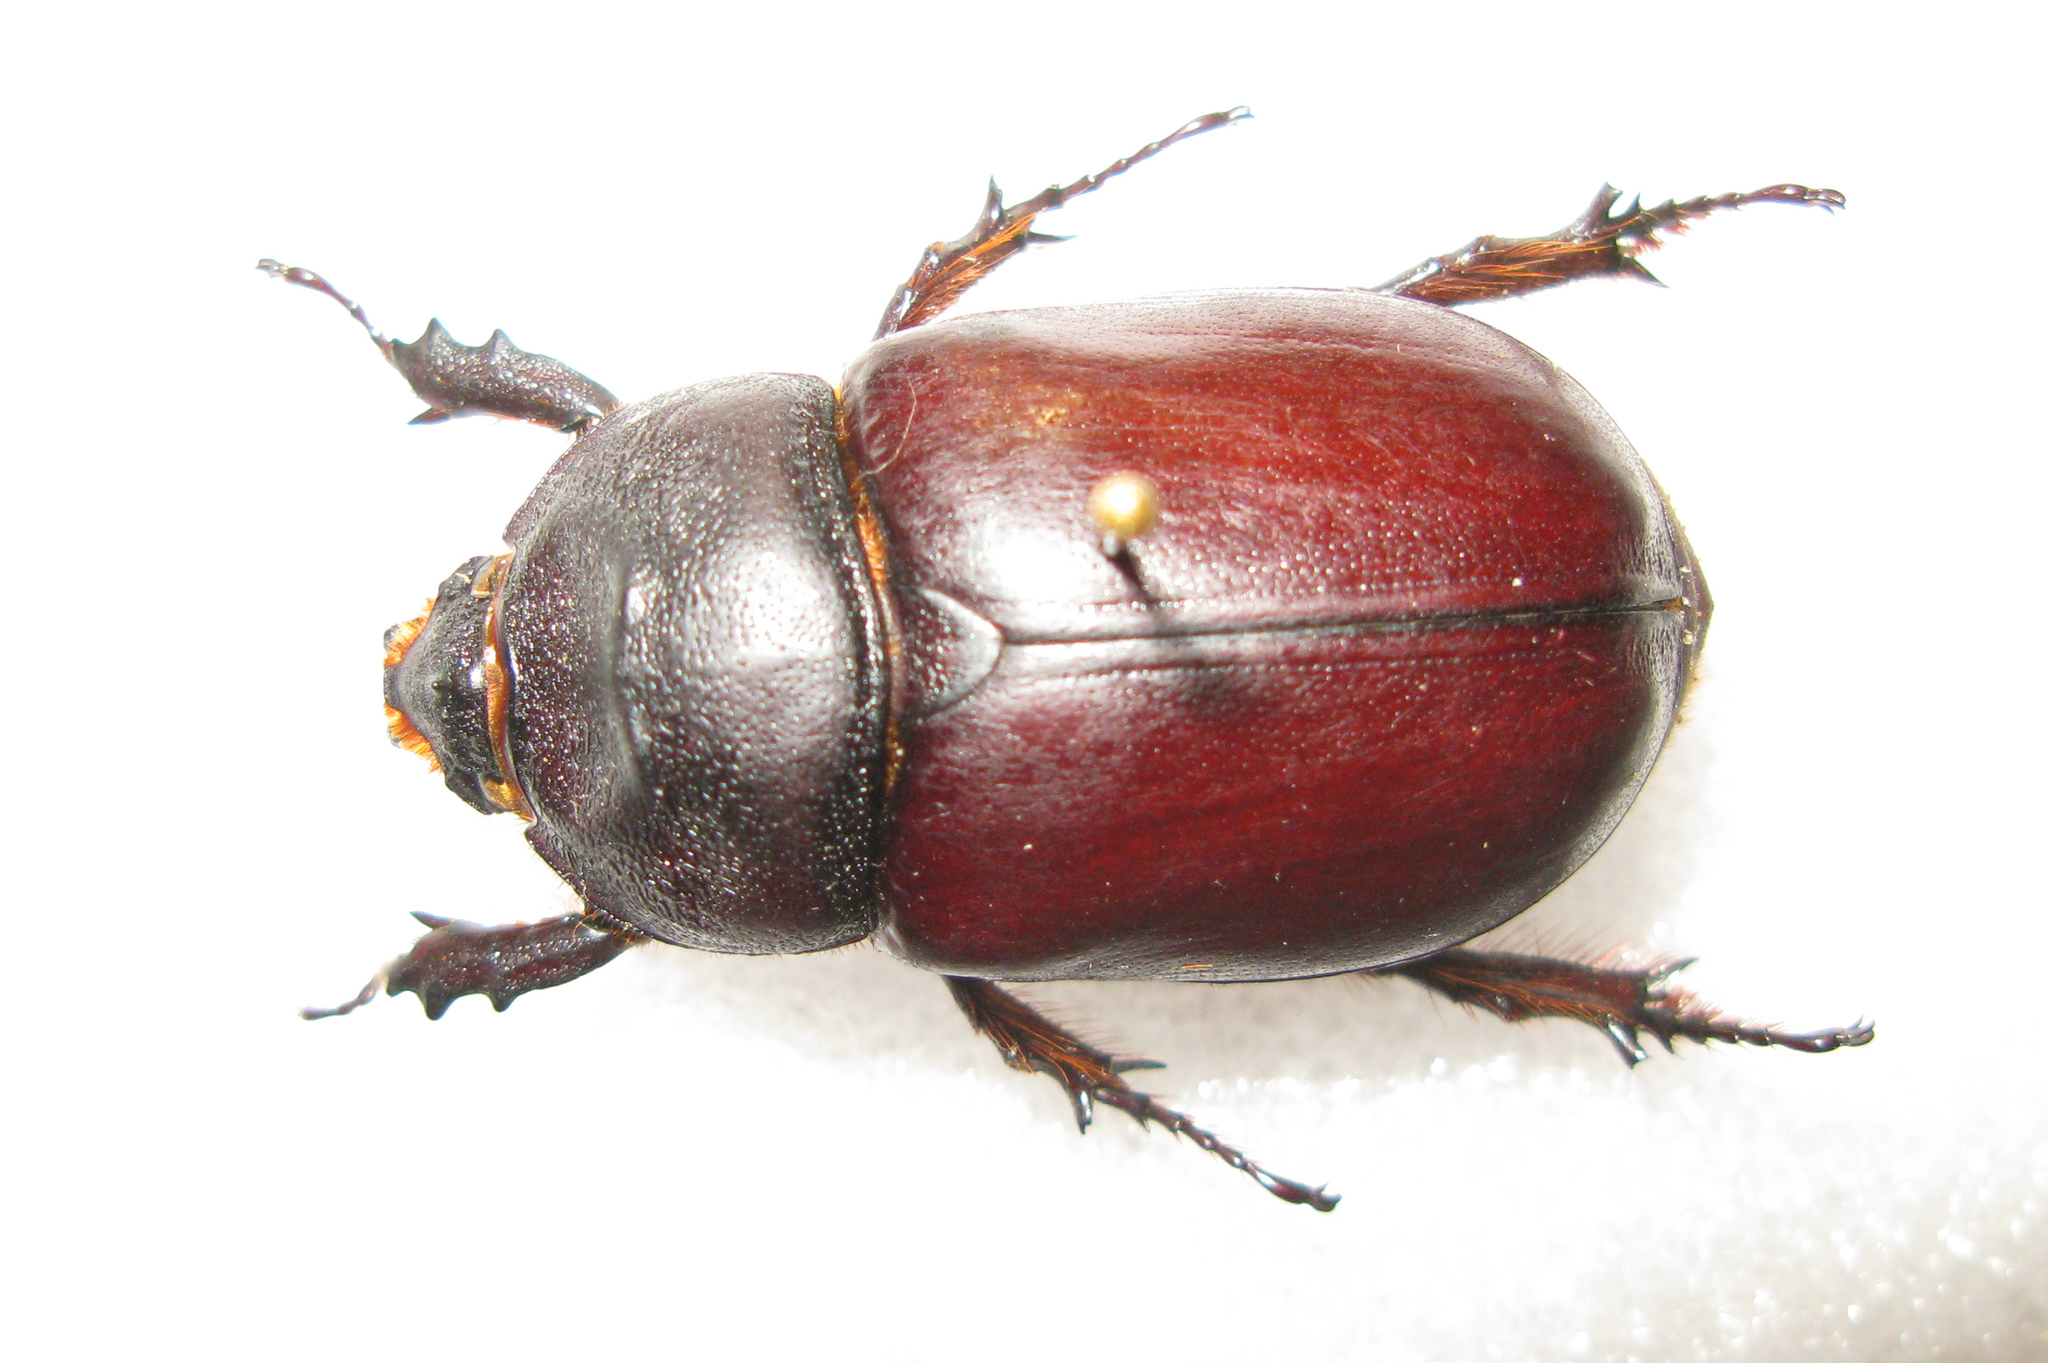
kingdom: Animalia
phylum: Arthropoda
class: Insecta
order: Coleoptera
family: Scarabaeidae
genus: Oryctes
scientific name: Oryctes nasicornis
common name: European rhinoceros beetle
